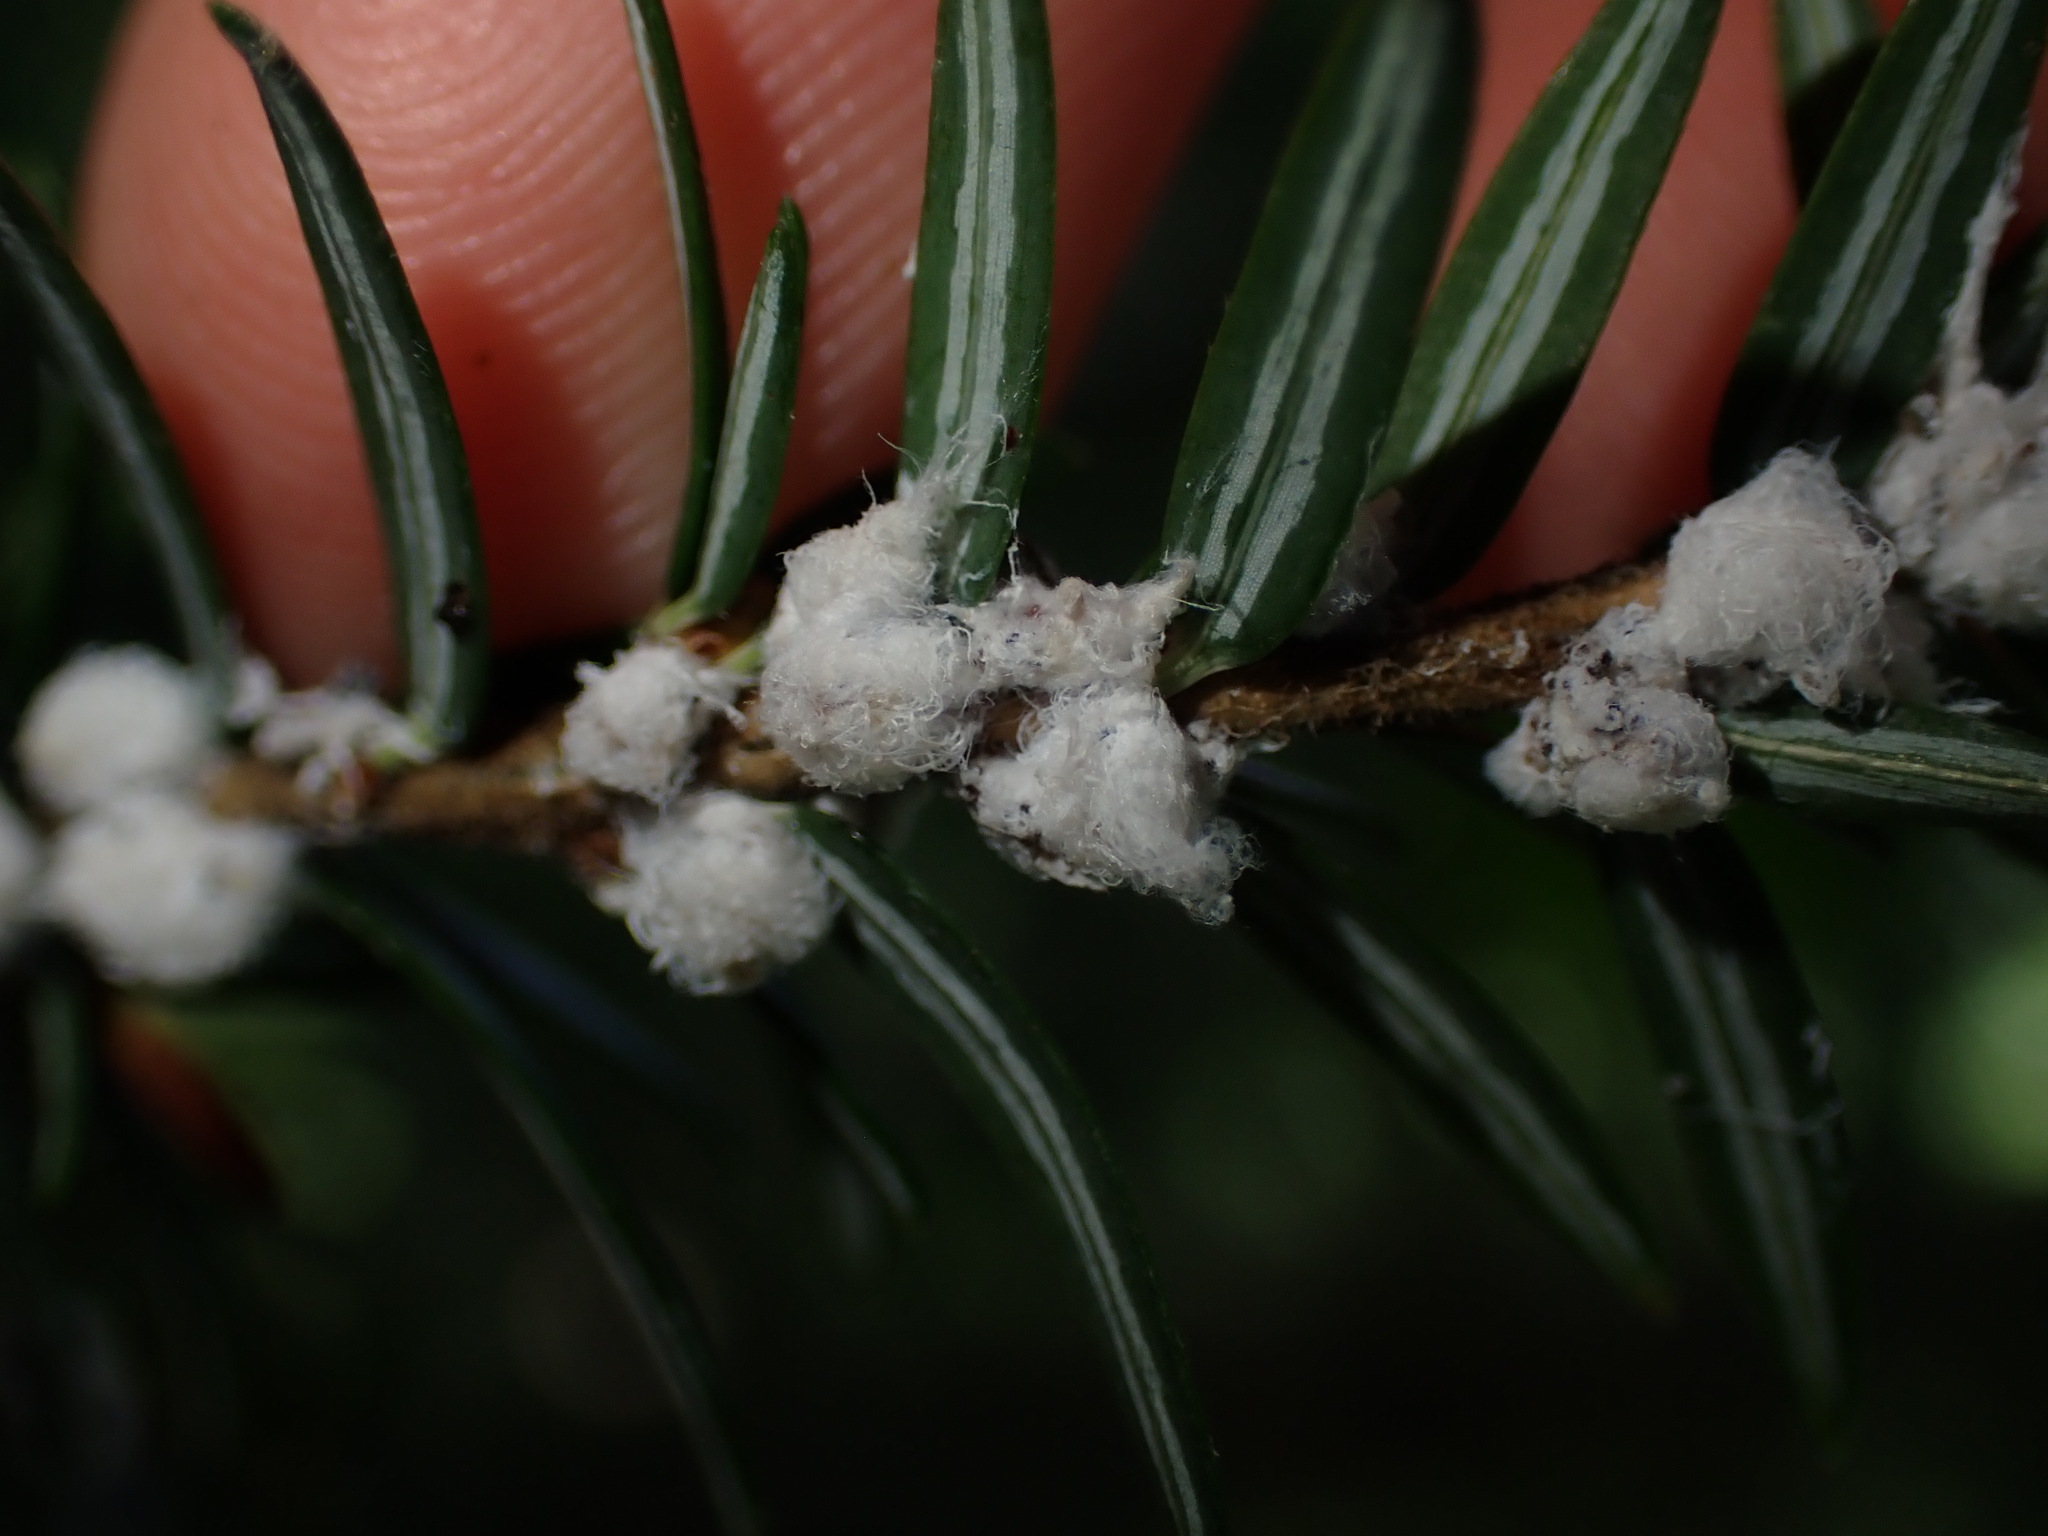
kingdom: Animalia
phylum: Arthropoda
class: Insecta
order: Hemiptera
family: Adelgidae
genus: Adelges
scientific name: Adelges tsugae
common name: Hemlock woolly adelgid
